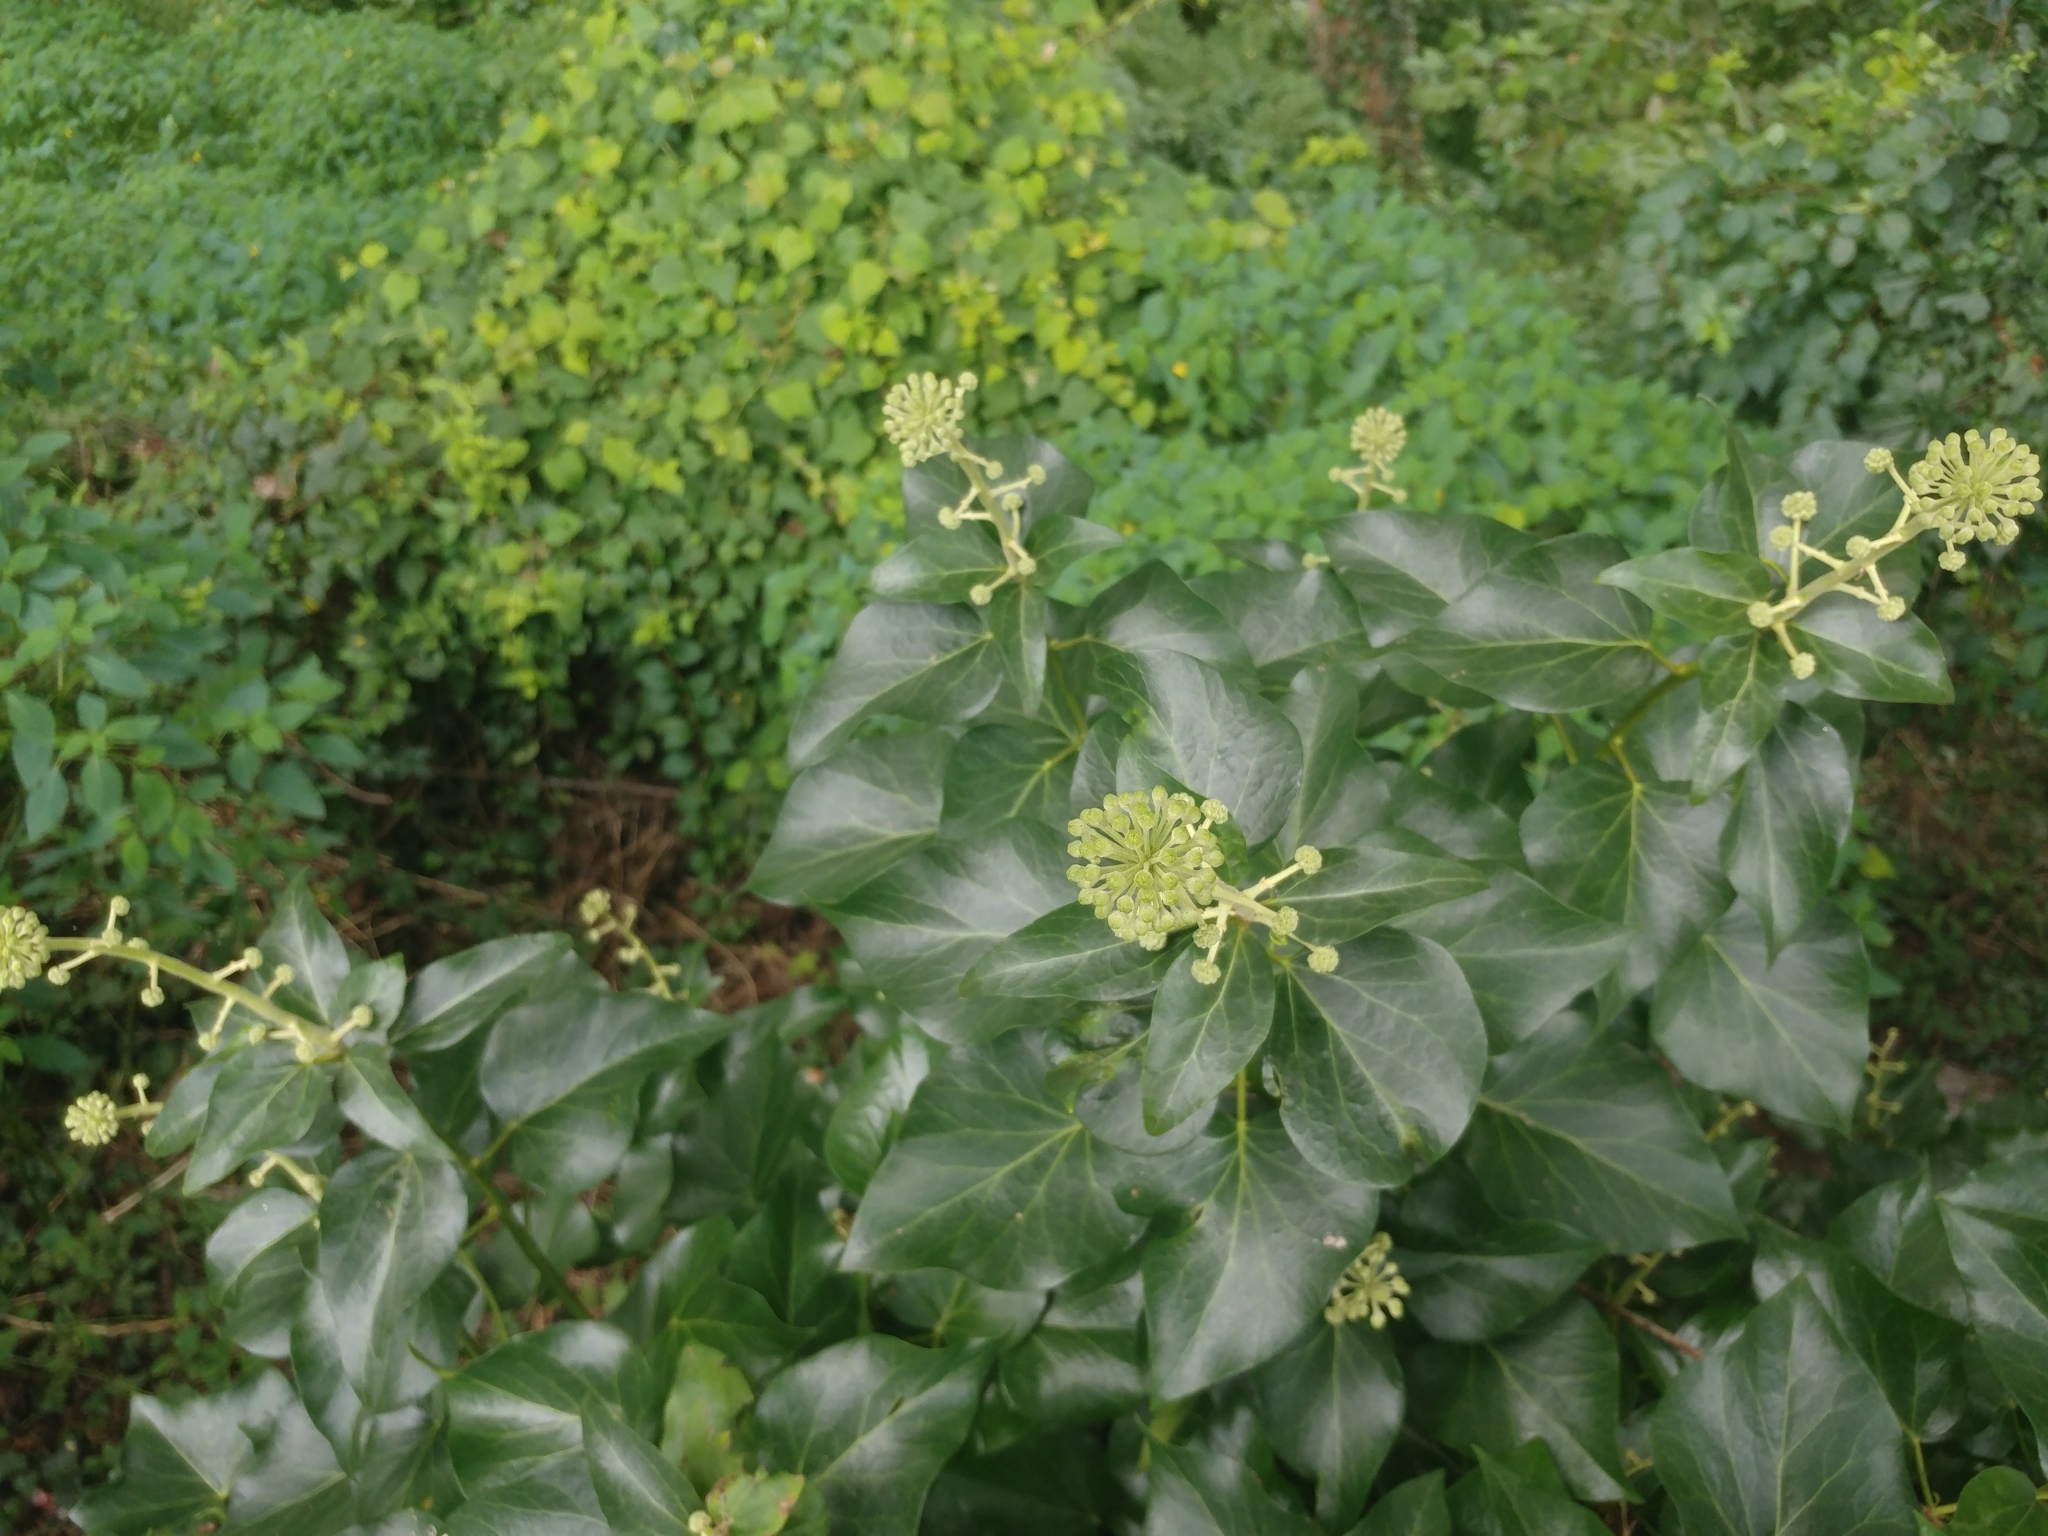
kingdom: Plantae
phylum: Tracheophyta
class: Magnoliopsida
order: Apiales
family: Araliaceae
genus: Hedera
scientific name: Hedera helix
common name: Ivy
